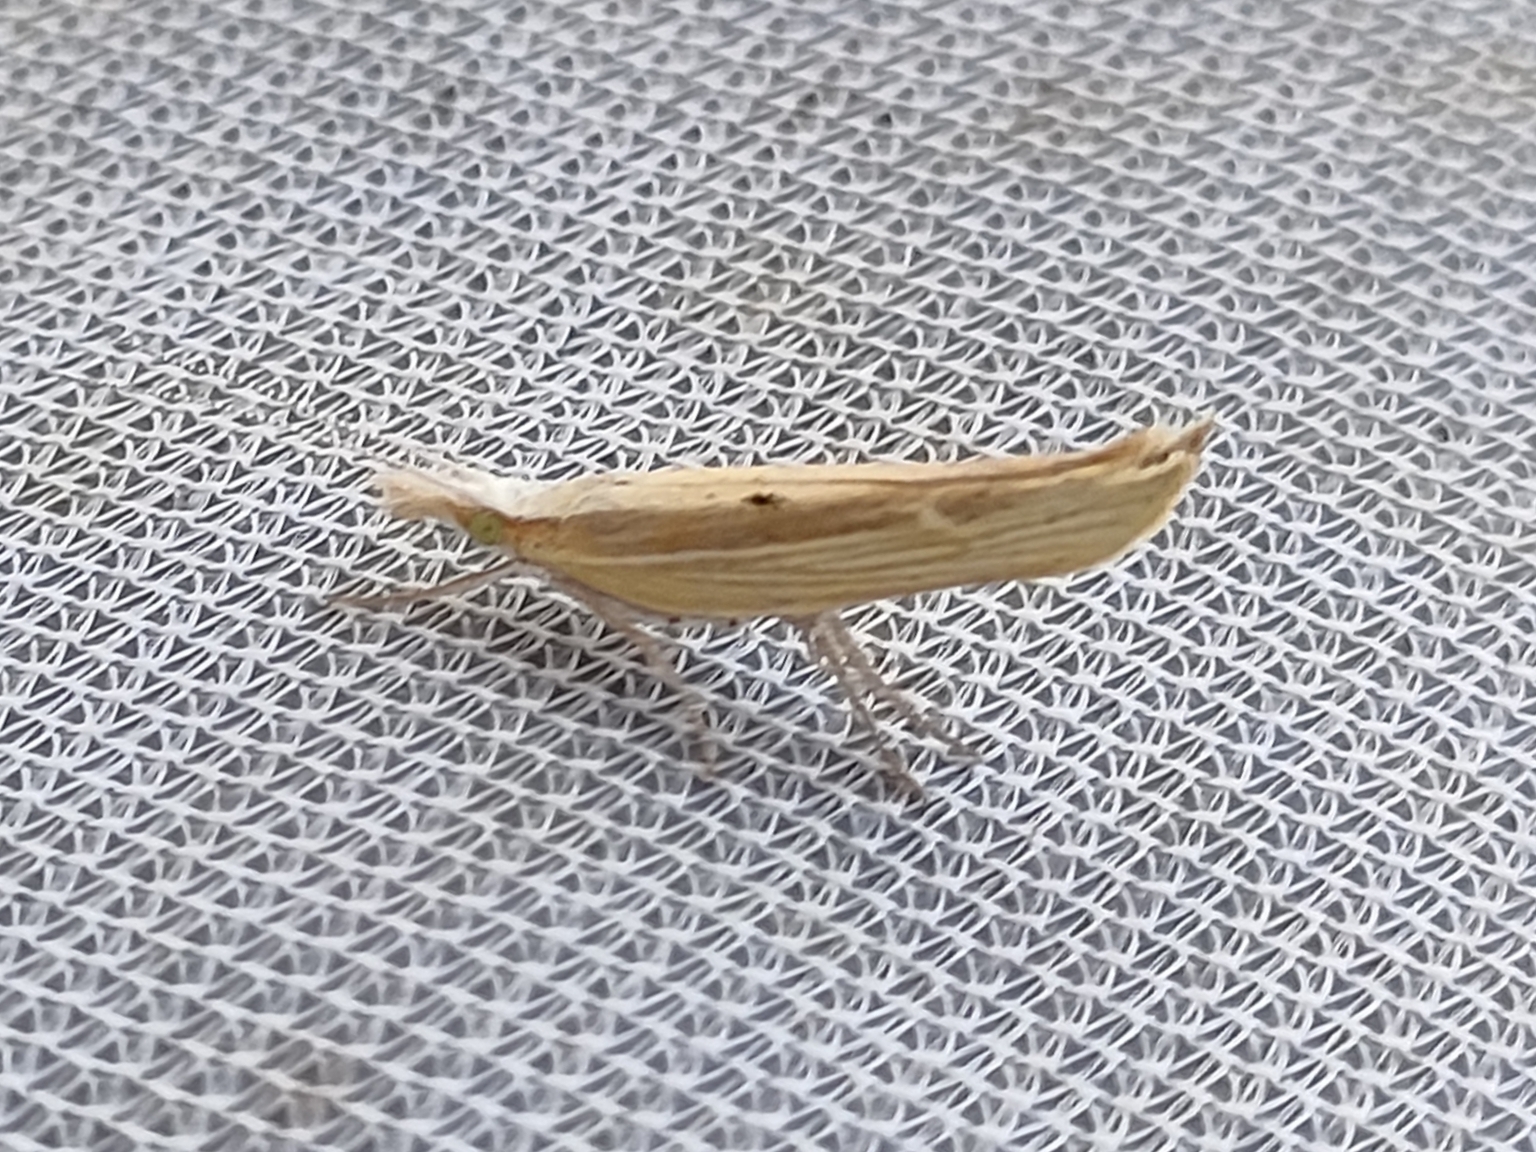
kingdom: Animalia
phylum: Arthropoda
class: Insecta
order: Lepidoptera
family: Ypsolophidae
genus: Ypsolopha
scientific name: Ypsolopha nemorella
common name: Hooked smudge
